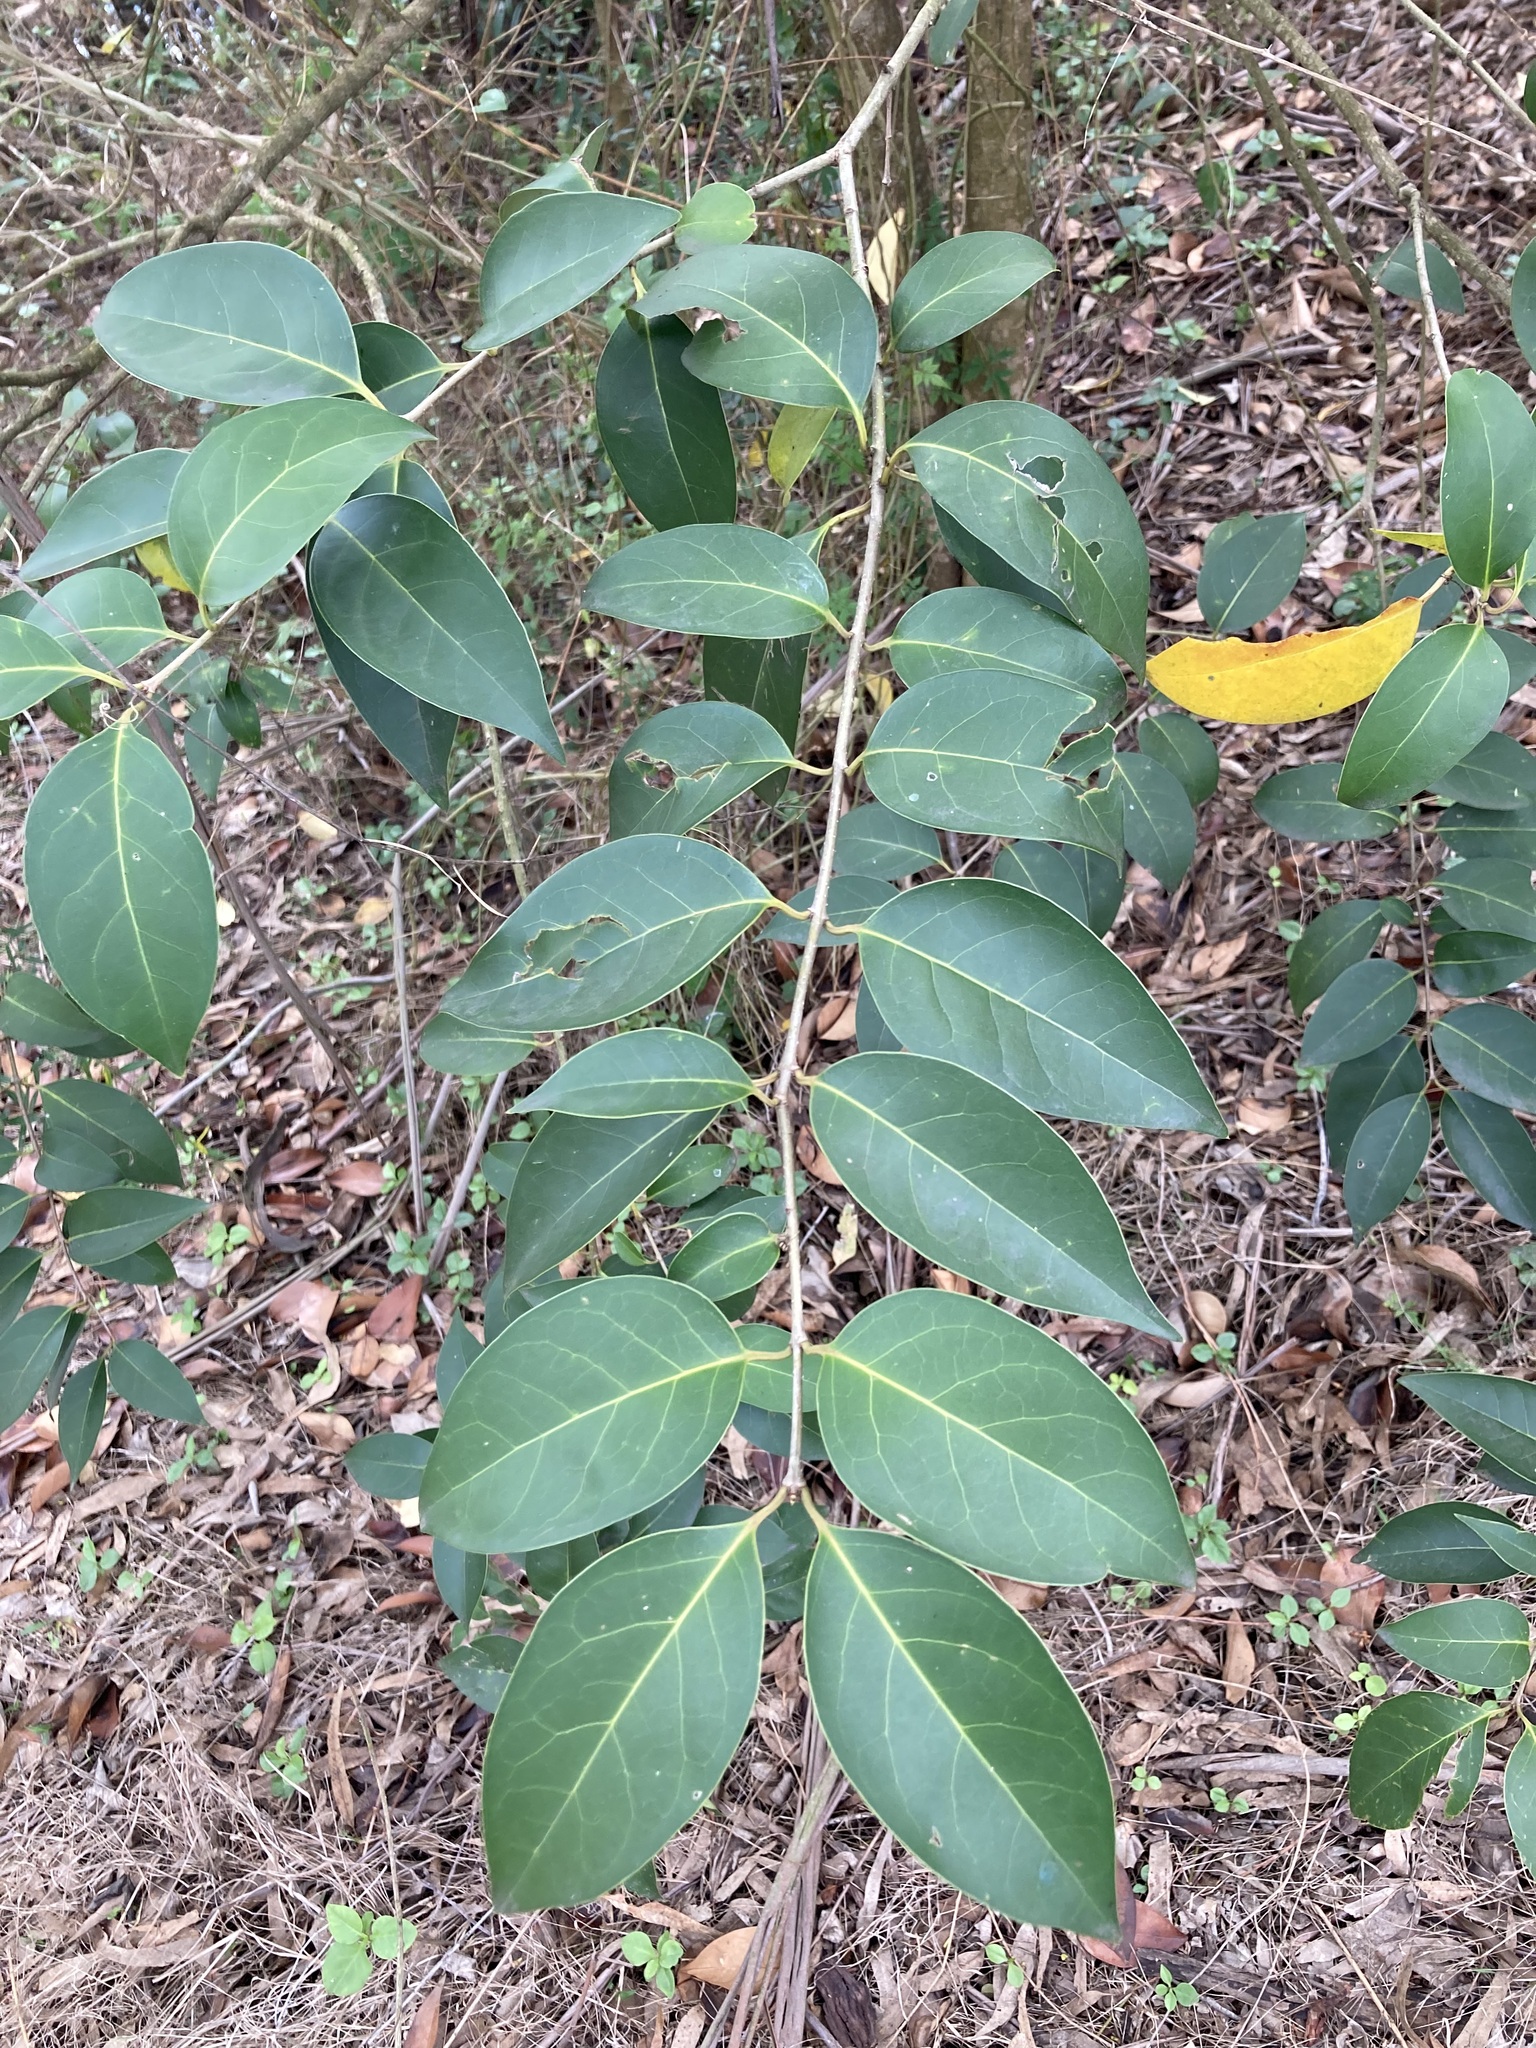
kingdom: Plantae
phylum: Tracheophyta
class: Magnoliopsida
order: Lamiales
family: Oleaceae
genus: Ligustrum
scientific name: Ligustrum lucidum
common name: Glossy privet
